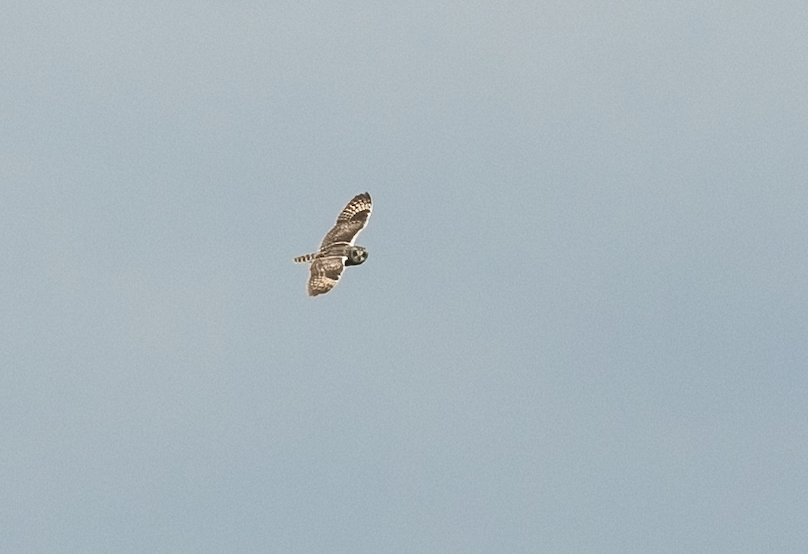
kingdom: Animalia
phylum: Chordata
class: Aves
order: Strigiformes
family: Strigidae
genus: Asio
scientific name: Asio flammeus
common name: Short-eared owl
